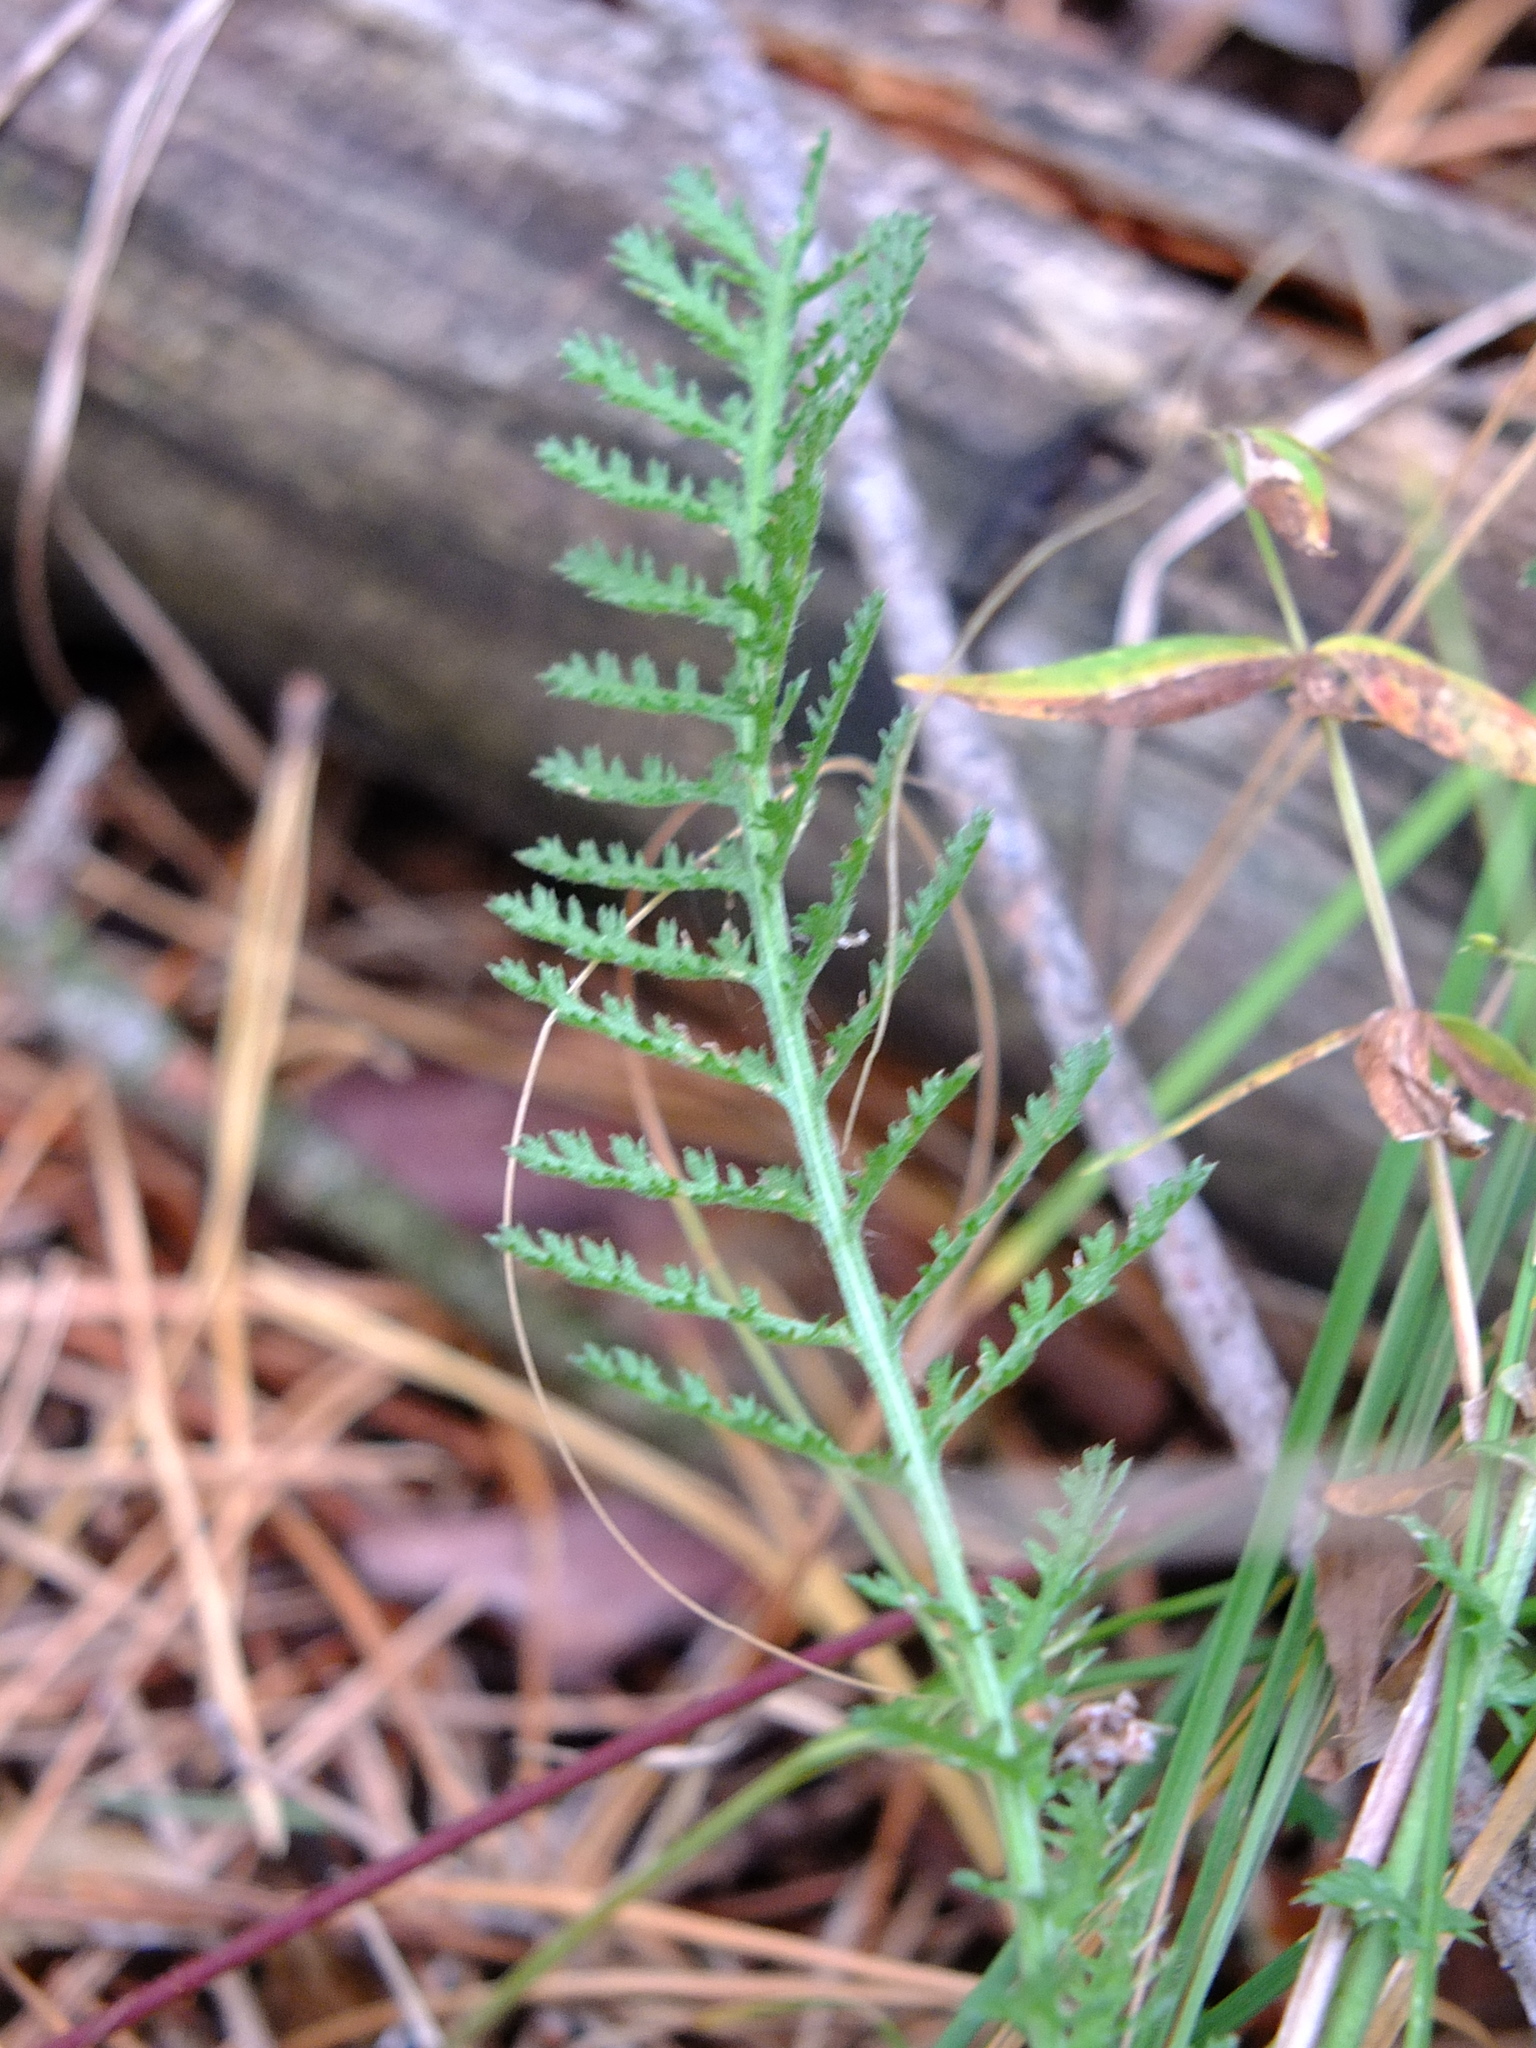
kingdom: Plantae
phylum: Tracheophyta
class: Magnoliopsida
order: Asterales
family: Asteraceae
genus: Achillea
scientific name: Achillea millefolium
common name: Yarrow
